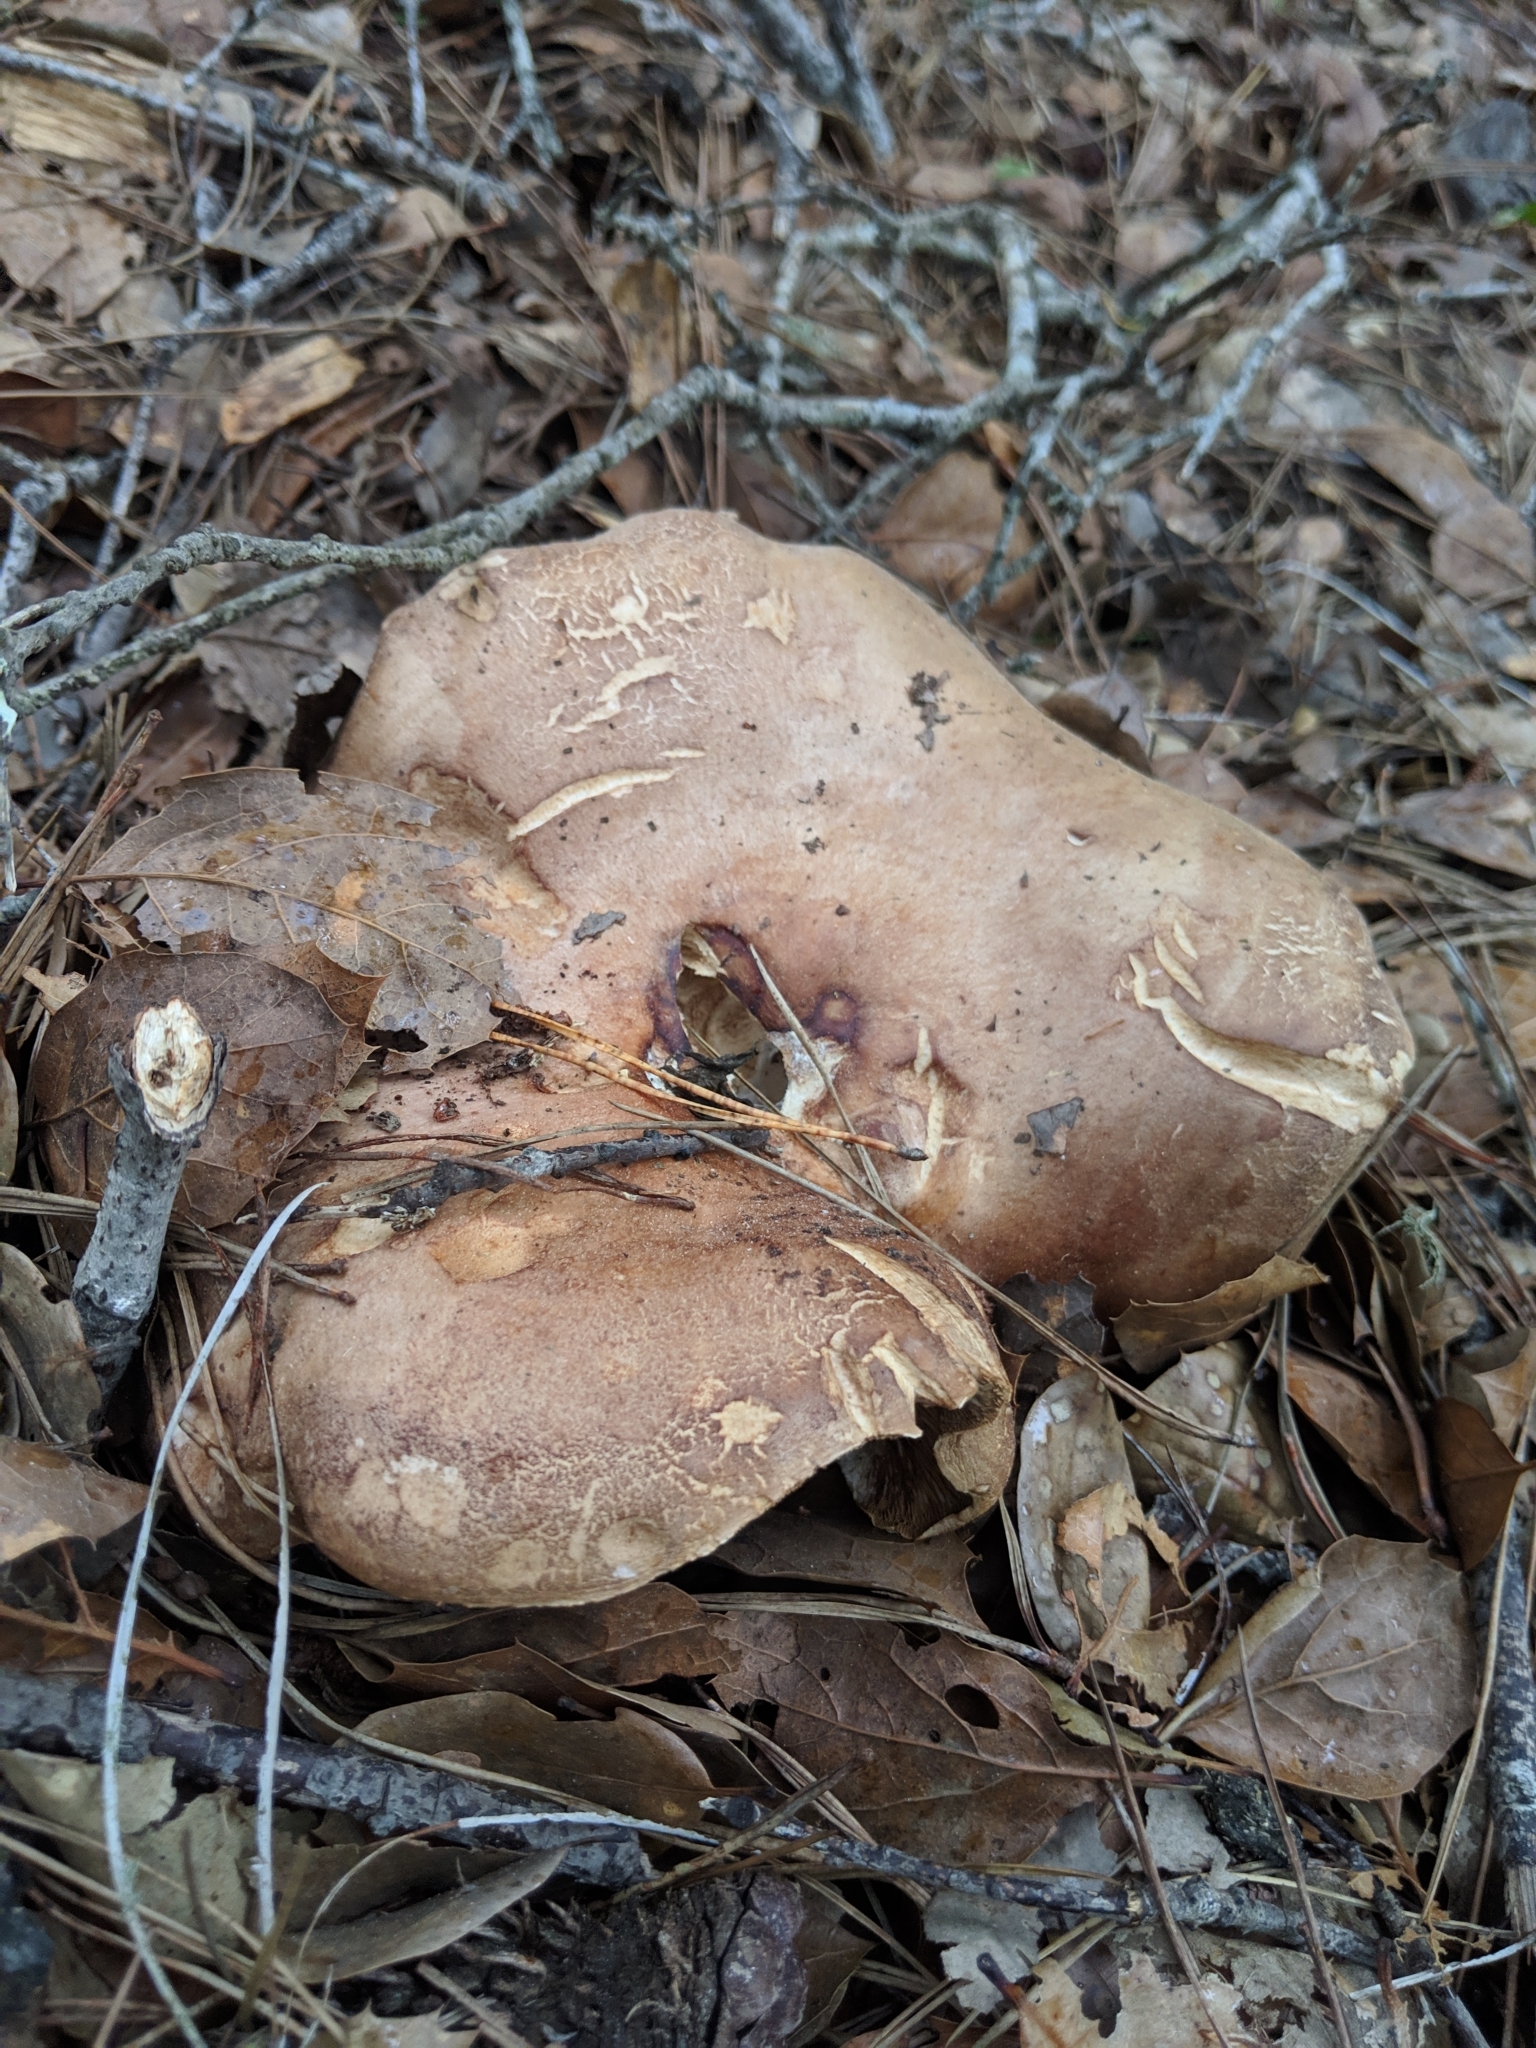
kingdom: Fungi
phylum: Basidiomycota
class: Agaricomycetes
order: Russulales
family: Russulaceae
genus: Lactarius
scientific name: Lactarius argillaceifolius
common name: Clay-gilled milkcap
